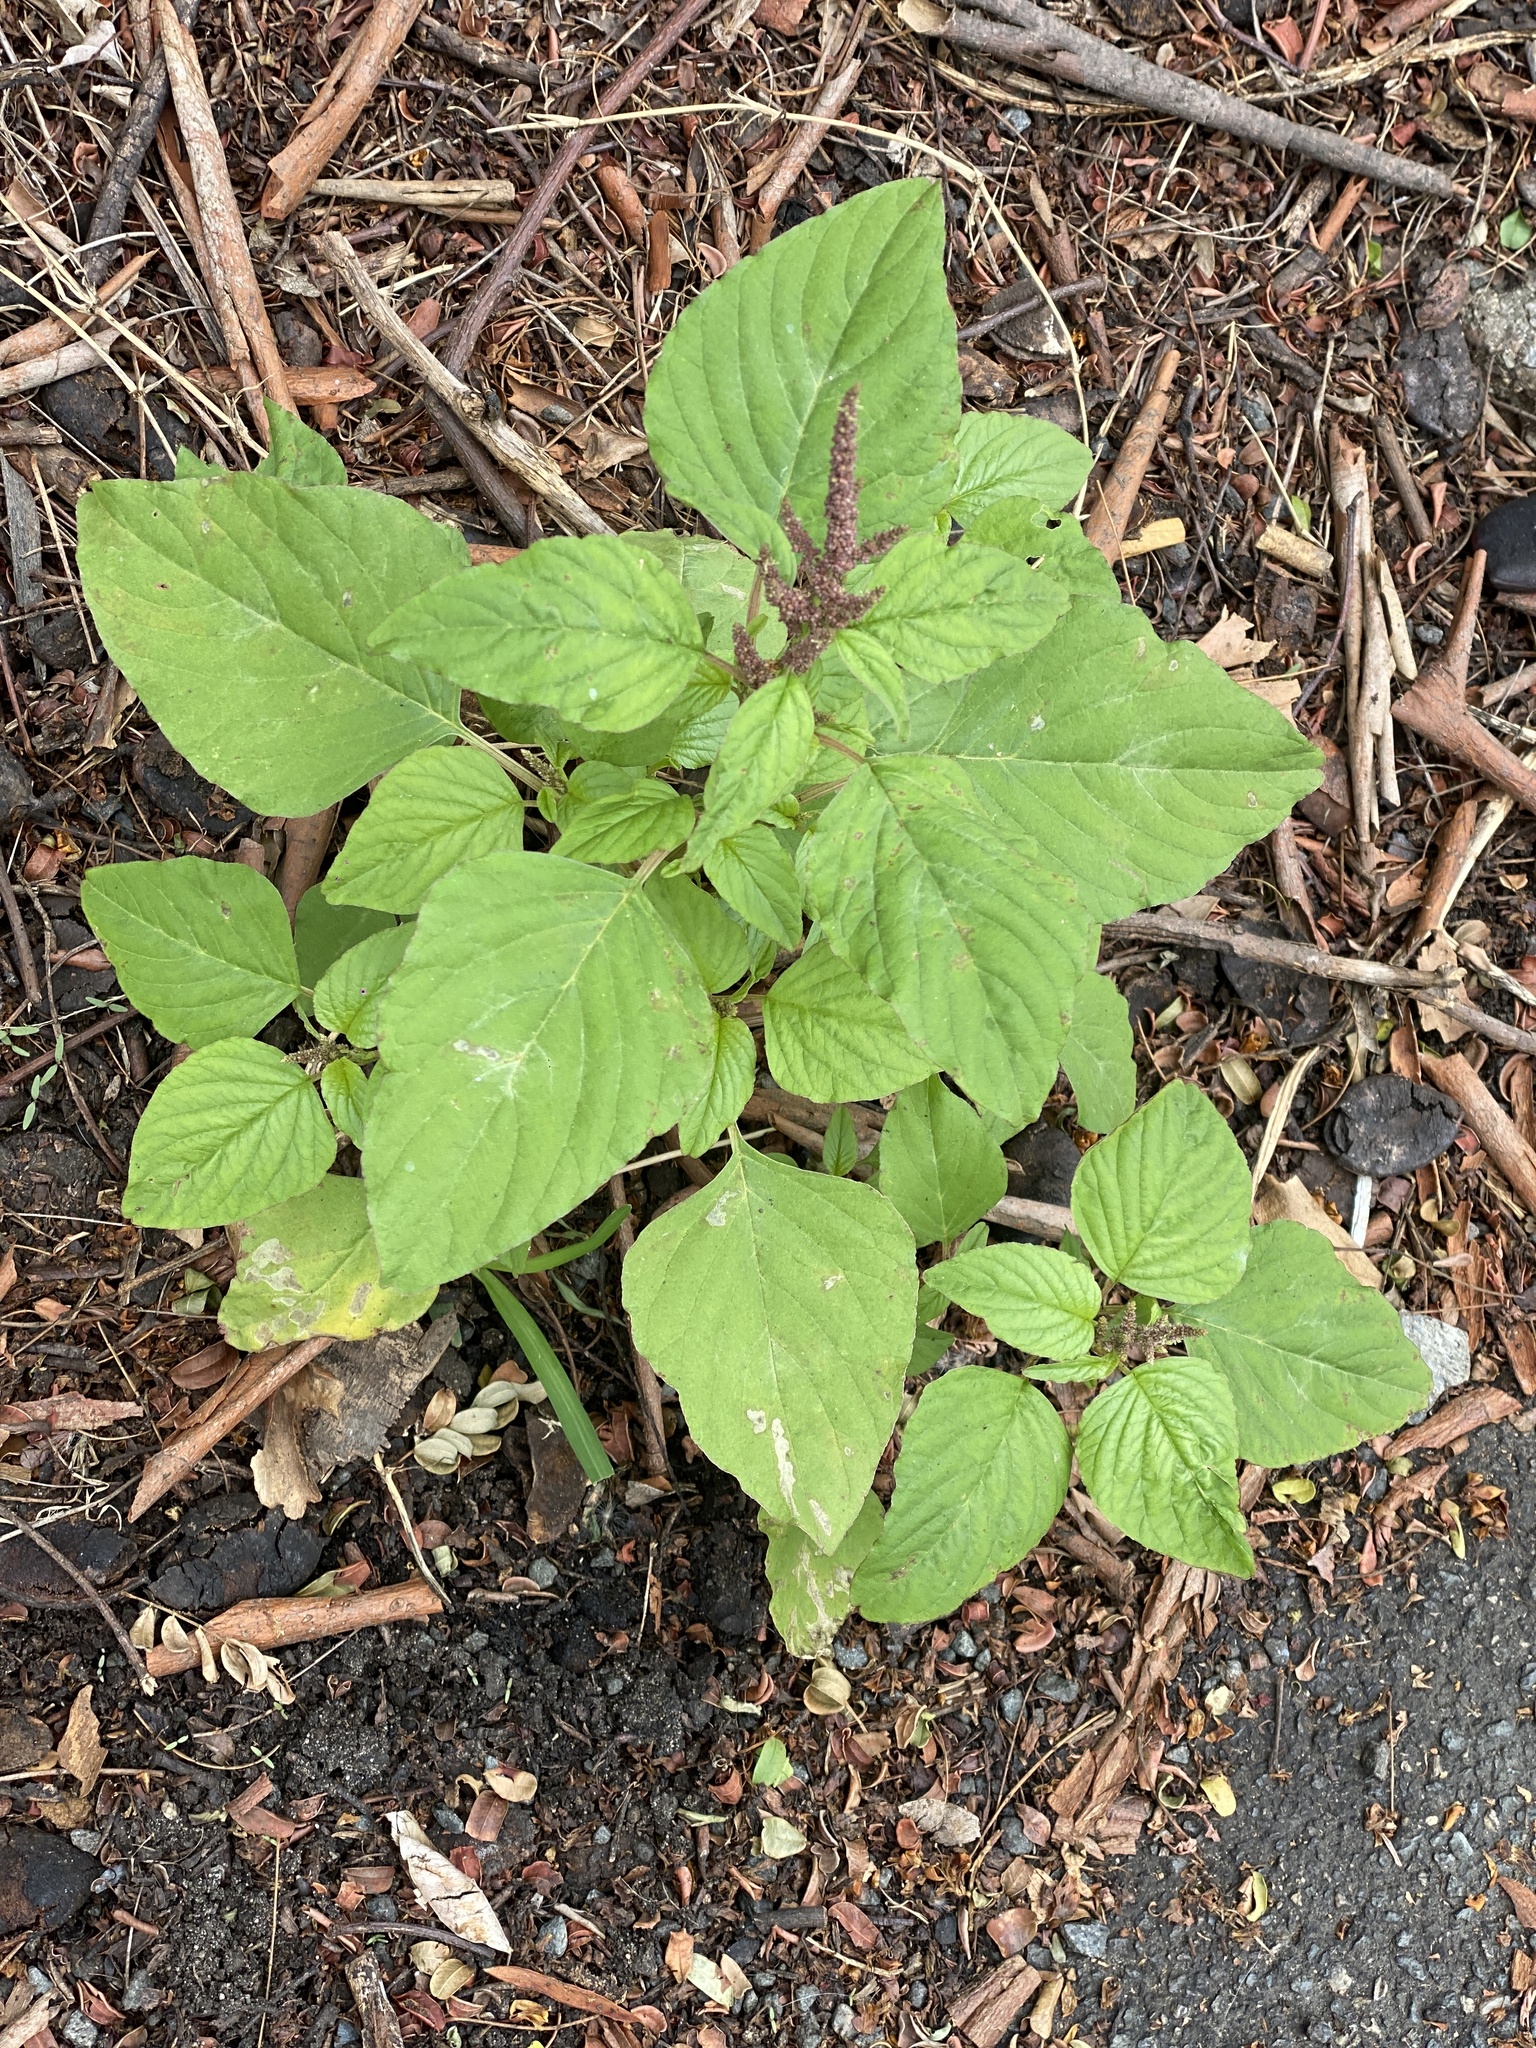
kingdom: Plantae
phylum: Tracheophyta
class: Magnoliopsida
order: Caryophyllales
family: Amaranthaceae
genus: Amaranthus
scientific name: Amaranthus viridis
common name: Slender amaranth
